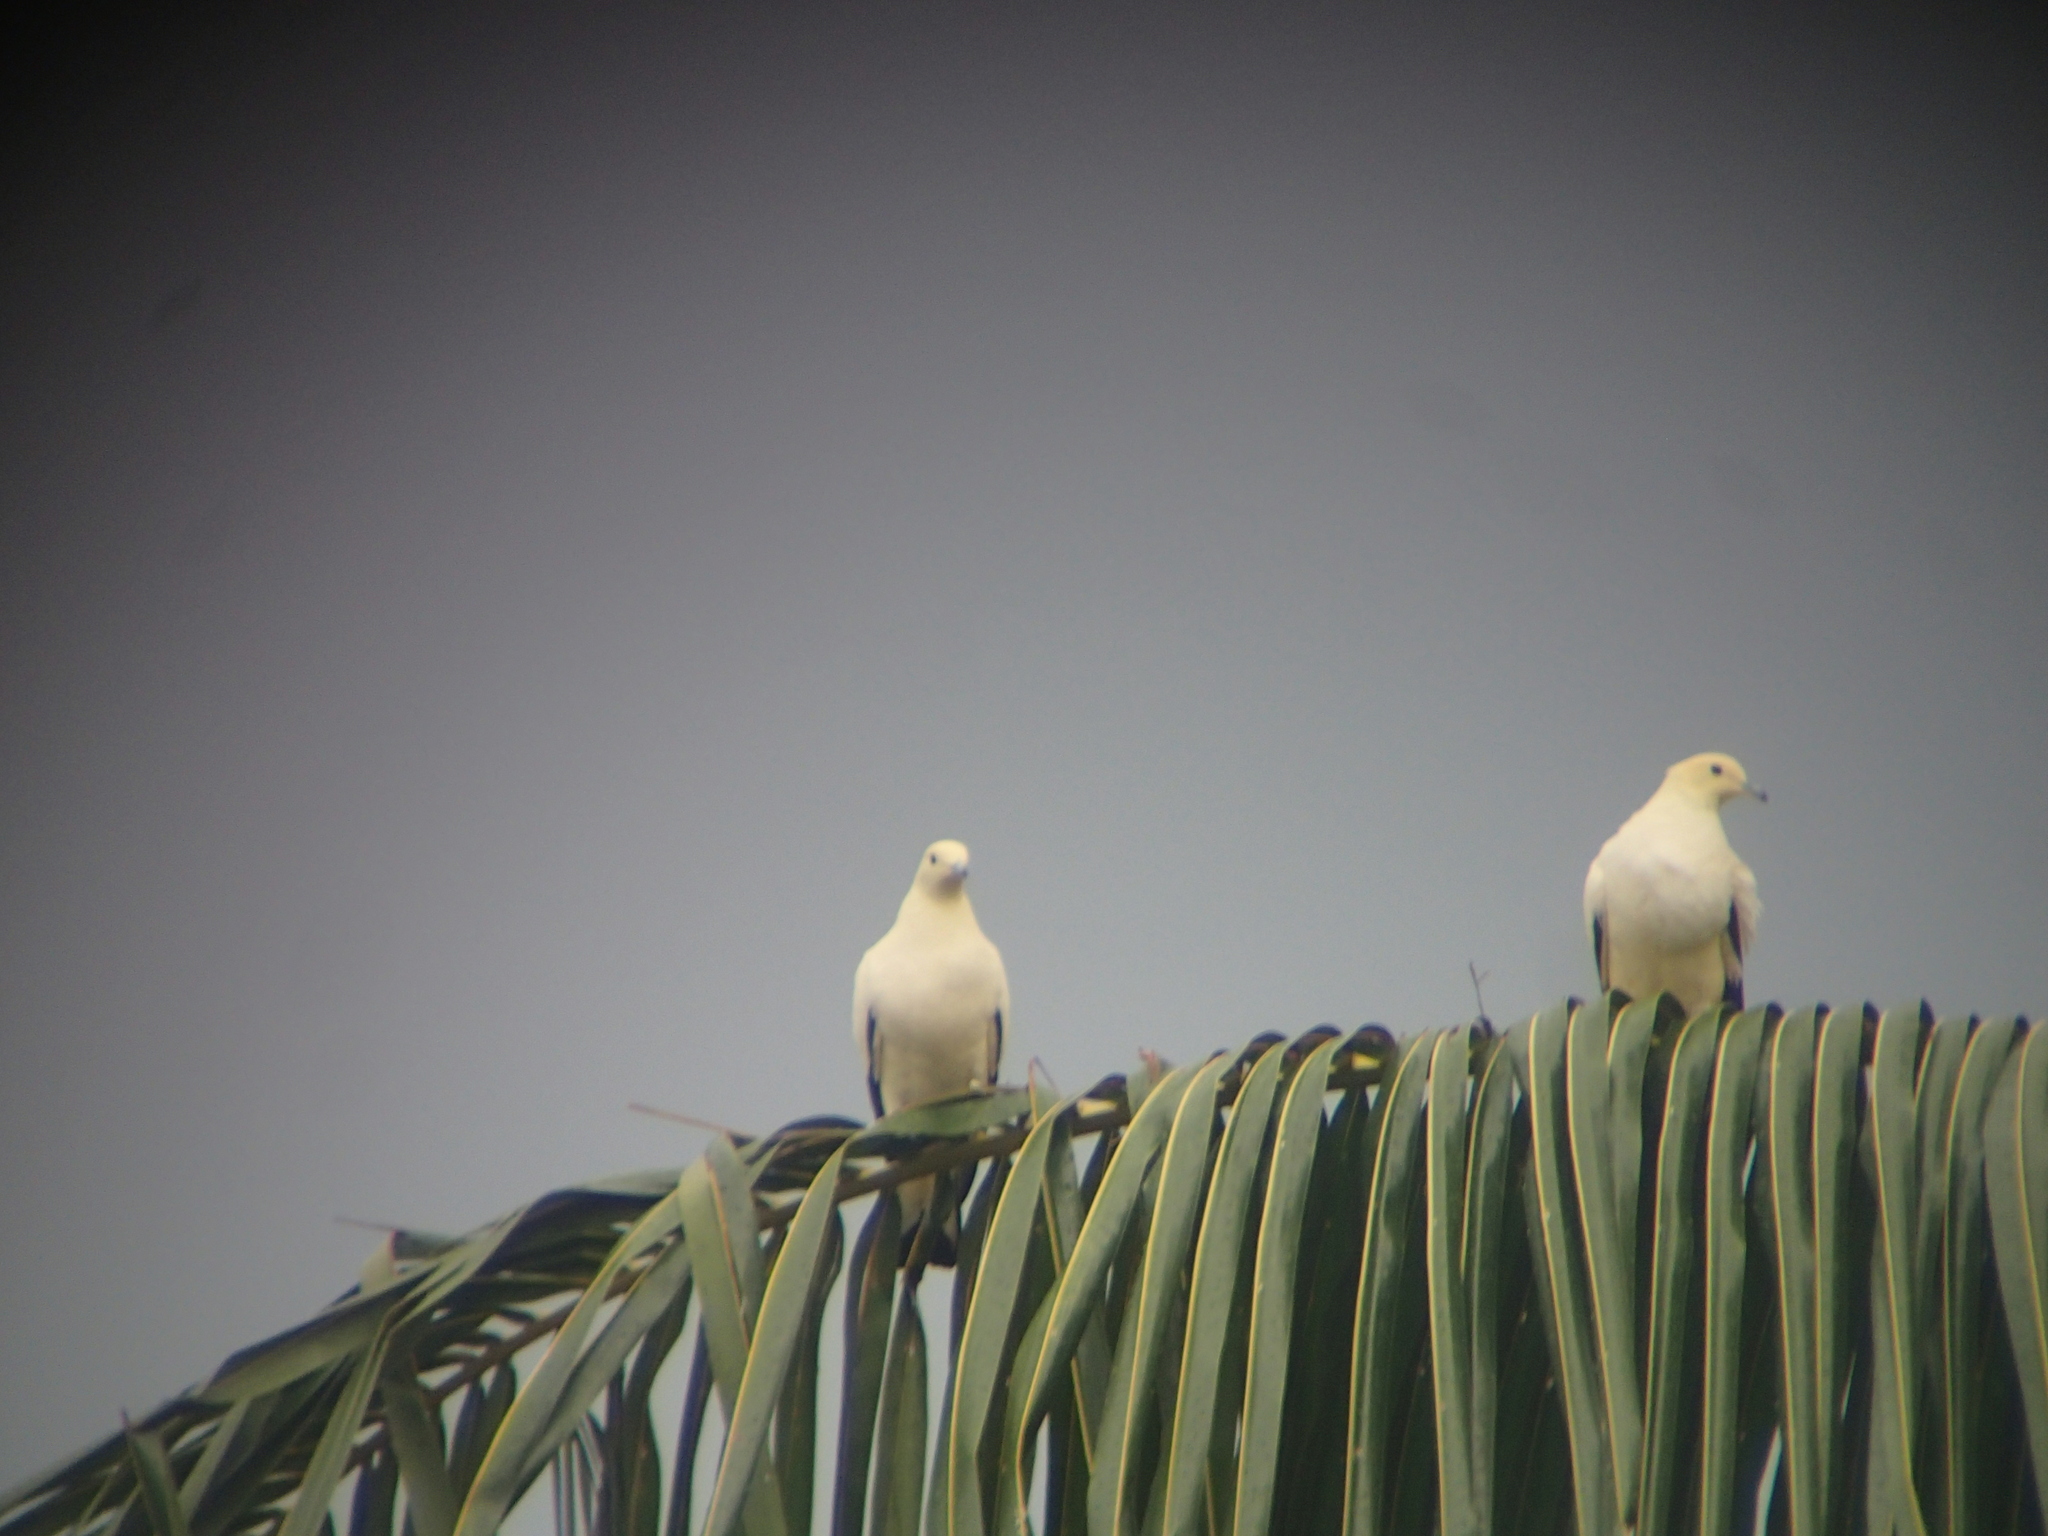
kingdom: Animalia
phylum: Chordata
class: Aves
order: Columbiformes
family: Columbidae
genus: Ducula
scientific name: Ducula bicolor
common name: Pied imperial pigeon
